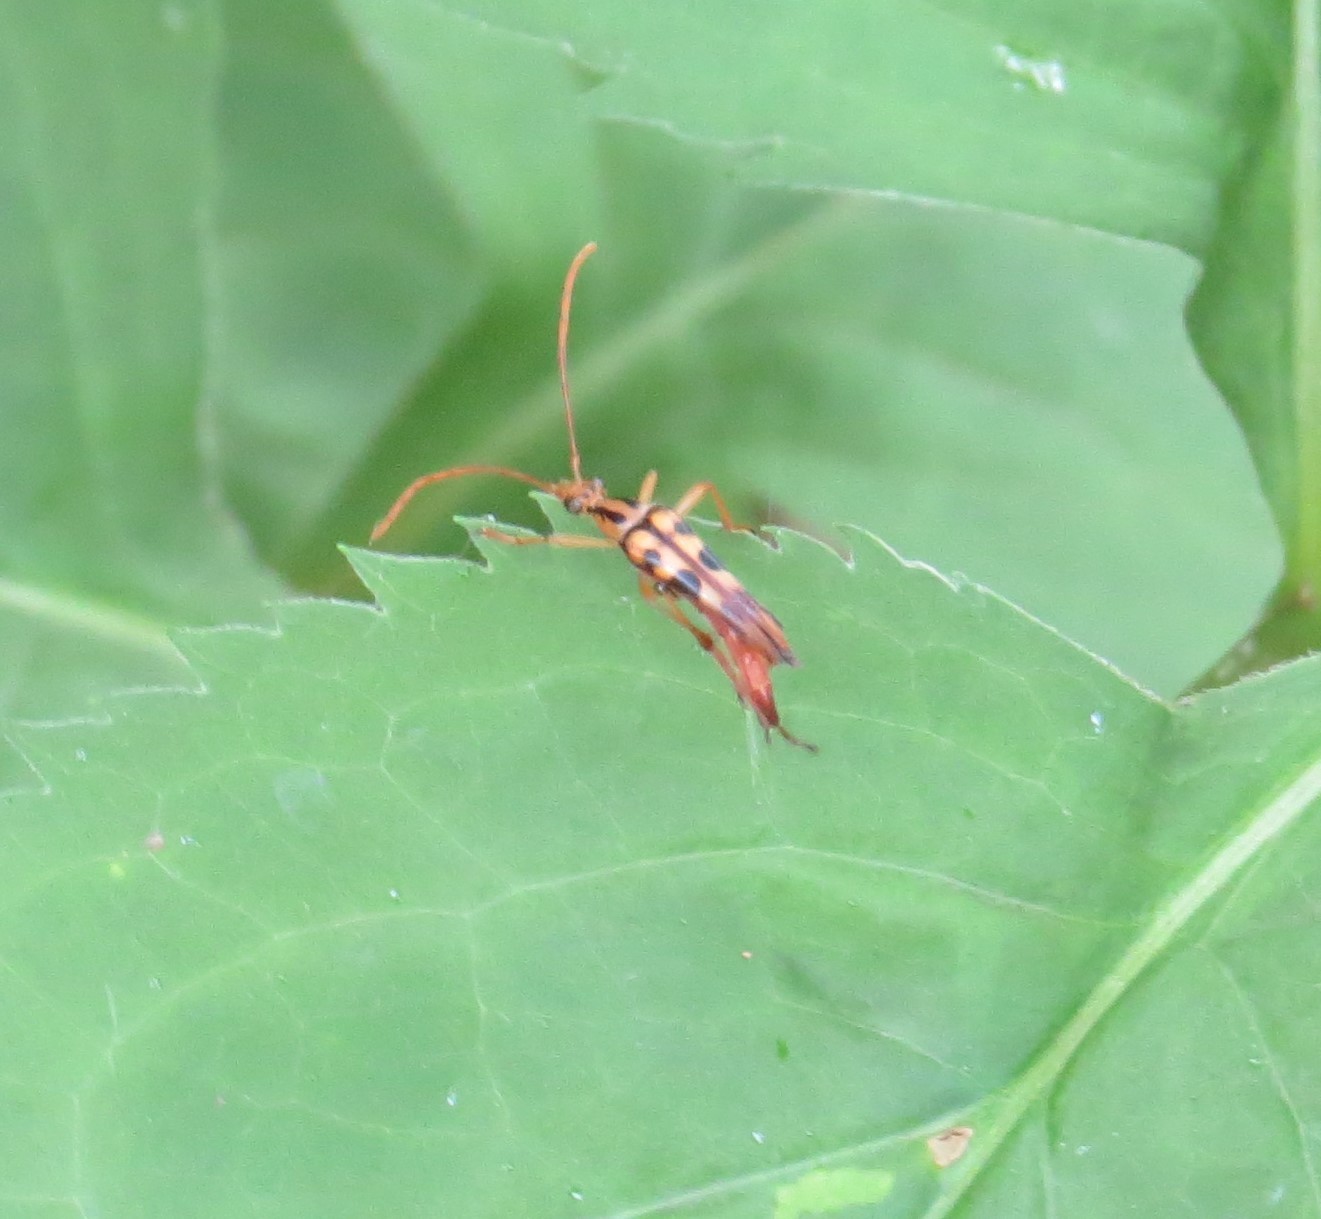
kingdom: Animalia
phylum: Arthropoda
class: Insecta
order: Coleoptera
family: Cerambycidae
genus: Strangalia
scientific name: Strangalia luteicornis
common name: Yellow-horned flower longhorn beetle
